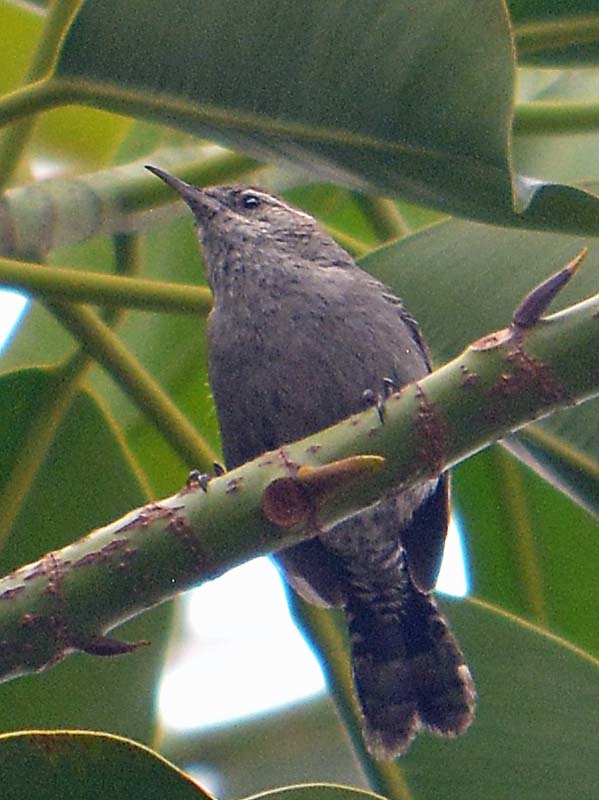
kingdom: Animalia
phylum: Chordata
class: Aves
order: Passeriformes
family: Troglodytidae
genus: Thryomanes
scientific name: Thryomanes bewickii
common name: Bewick's wren
